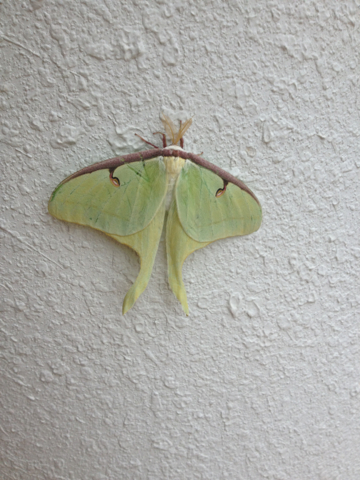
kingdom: Animalia
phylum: Arthropoda
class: Insecta
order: Lepidoptera
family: Saturniidae
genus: Actias
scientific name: Actias luna
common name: Luna moth
